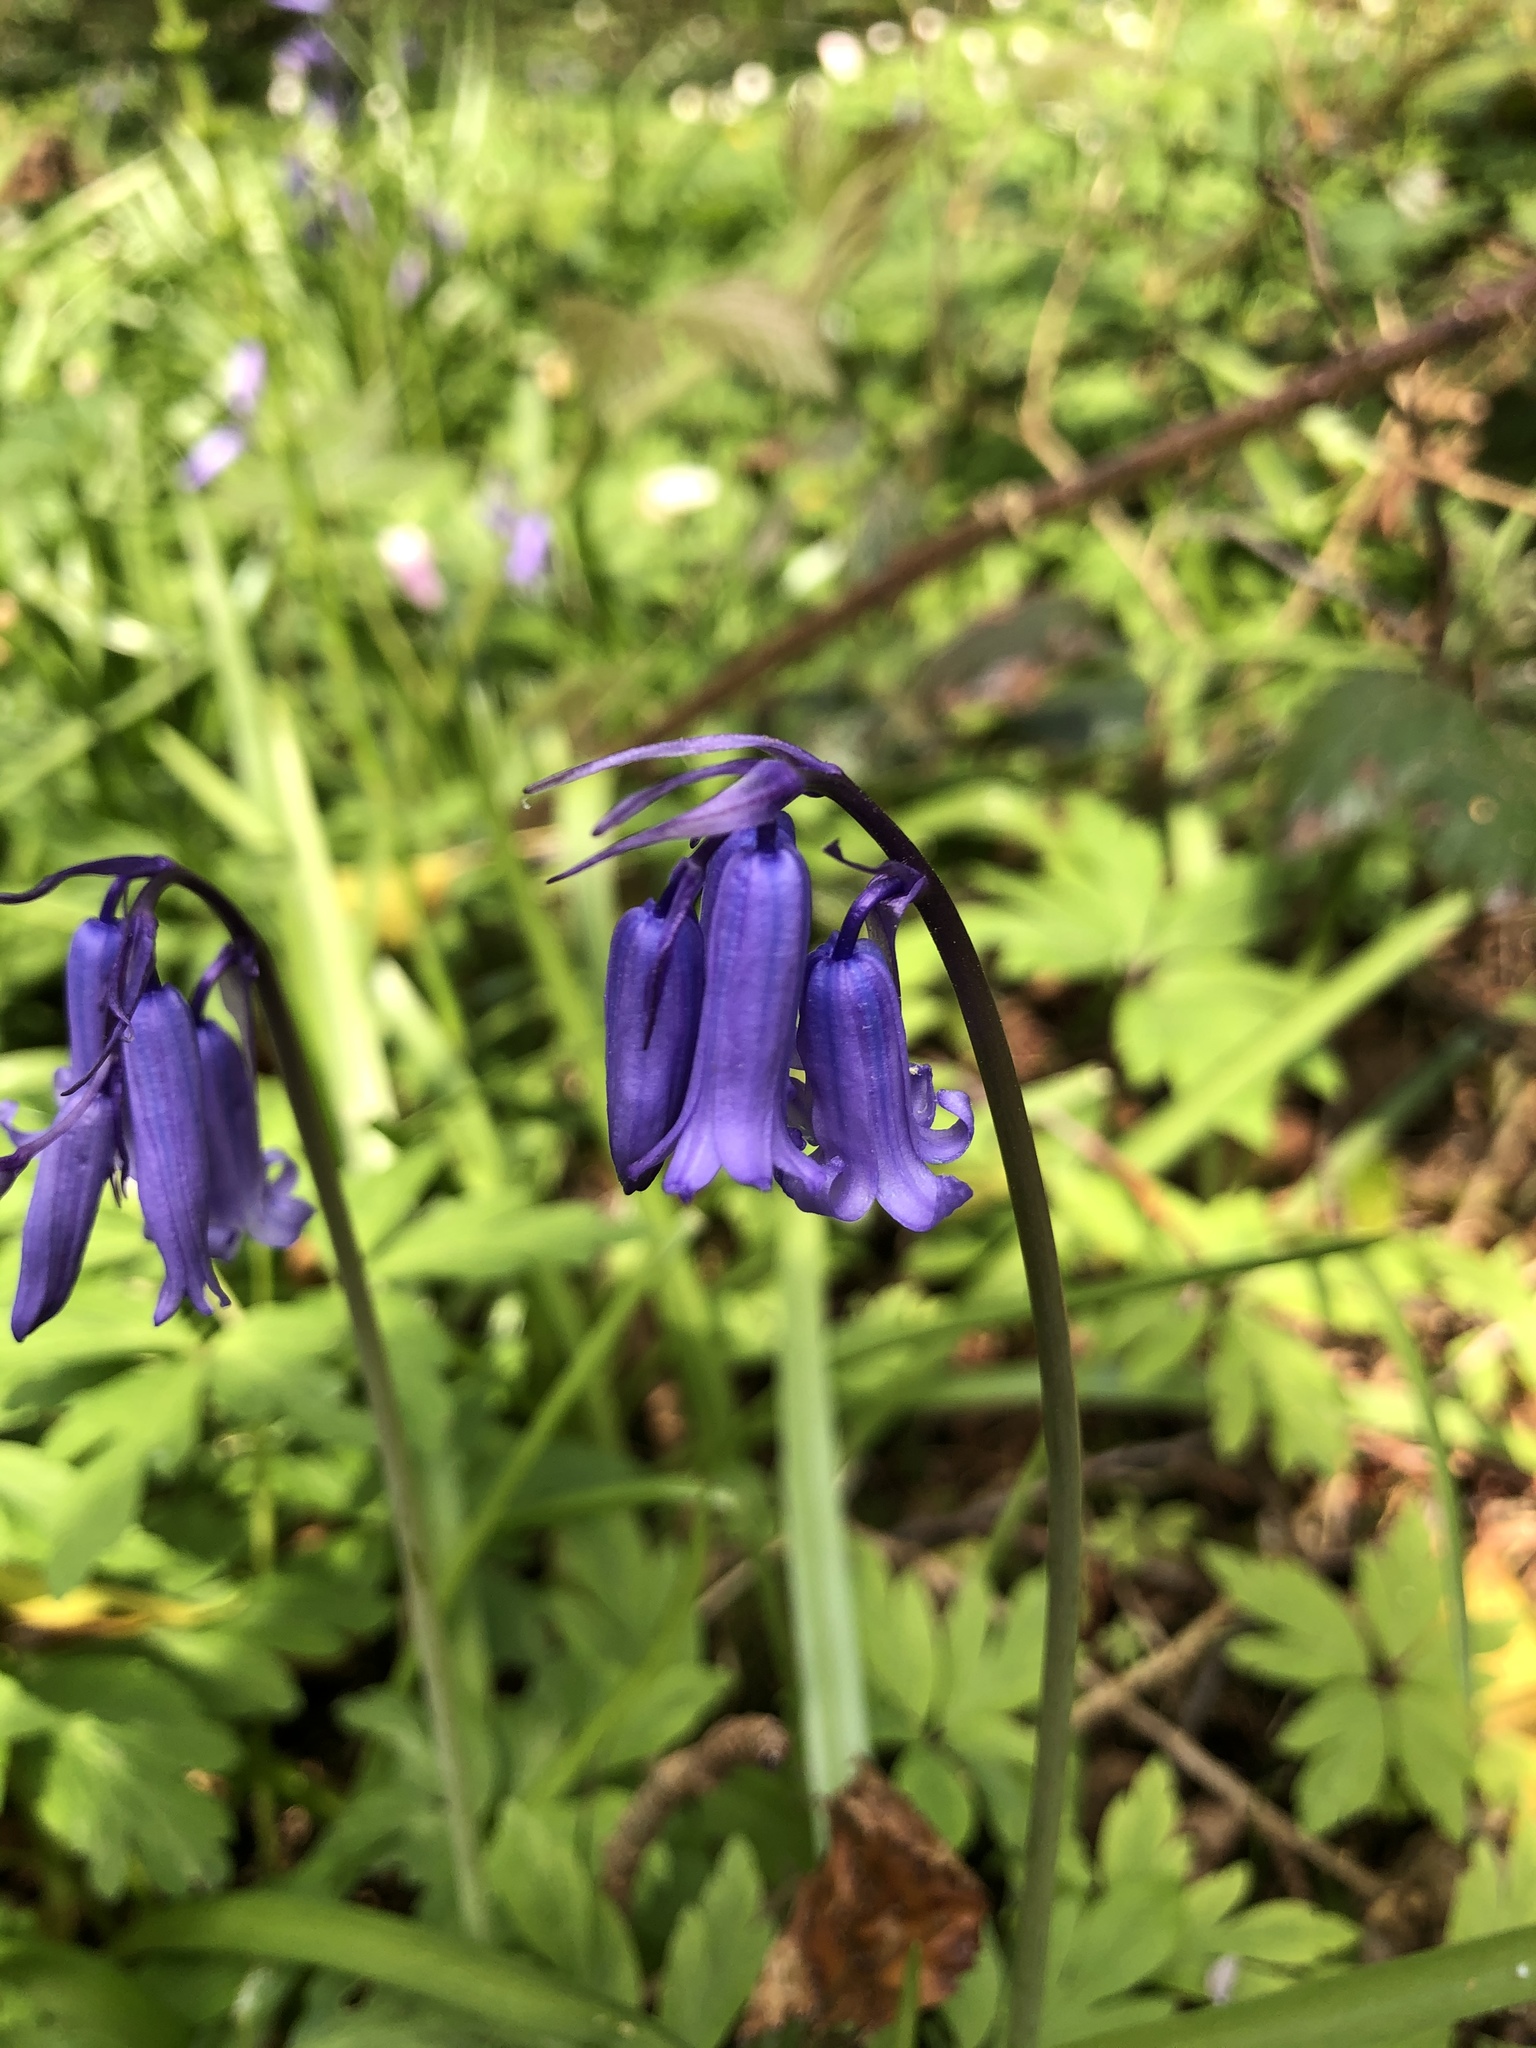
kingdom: Plantae
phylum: Tracheophyta
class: Liliopsida
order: Asparagales
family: Asparagaceae
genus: Hyacinthoides
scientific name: Hyacinthoides non-scripta
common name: Bluebell
